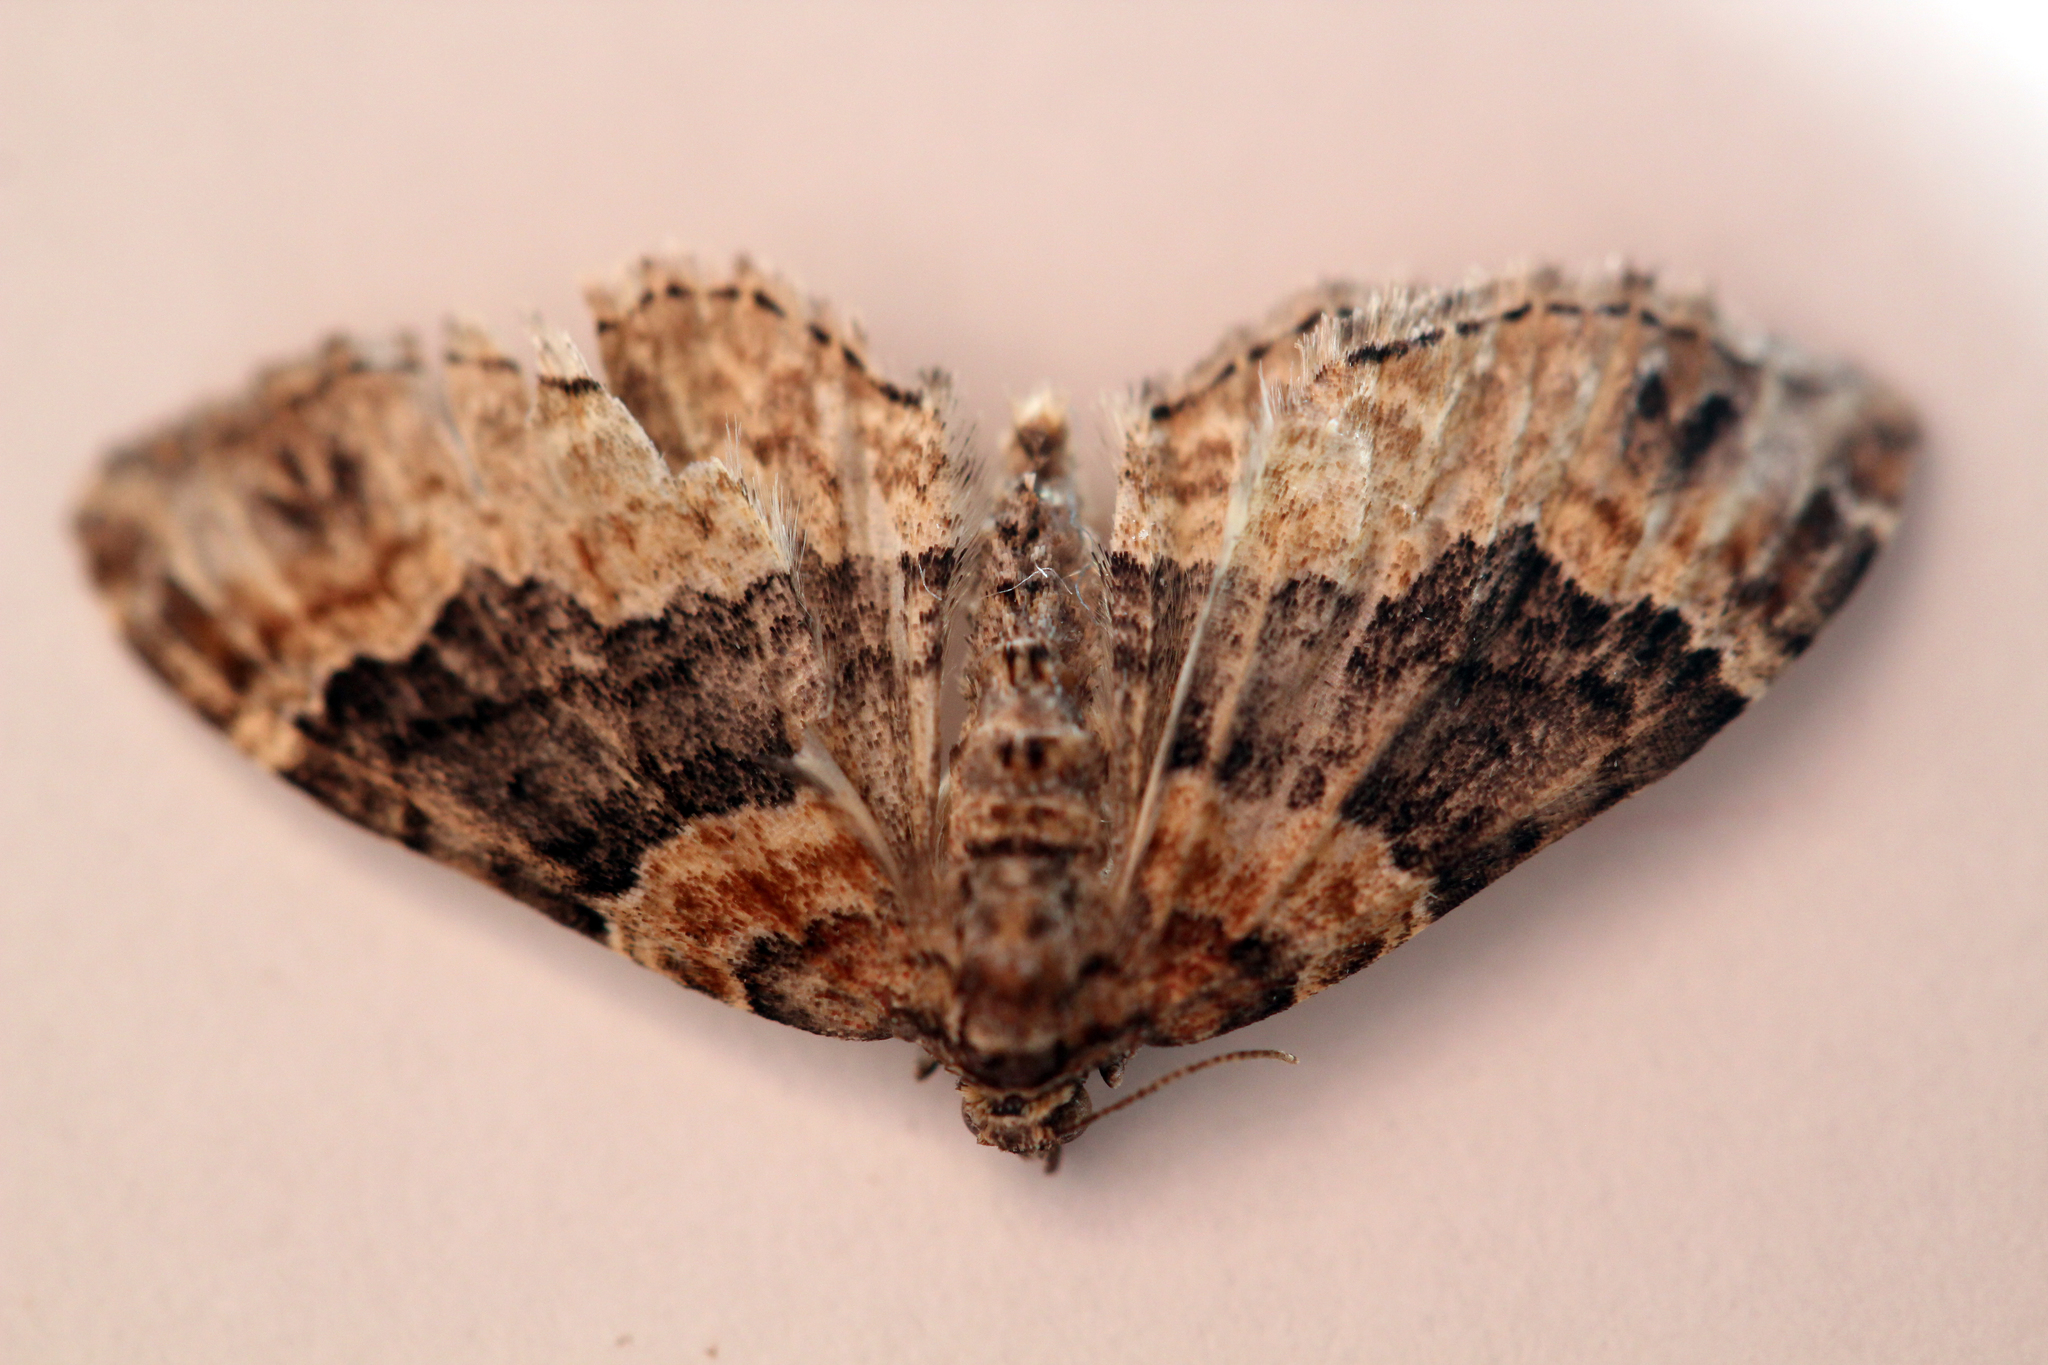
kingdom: Animalia
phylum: Arthropoda
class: Insecta
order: Lepidoptera
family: Geometridae
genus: Xanthorhoe
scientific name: Xanthorhoe ferrugata
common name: Dark-barred twin-spot carpet
